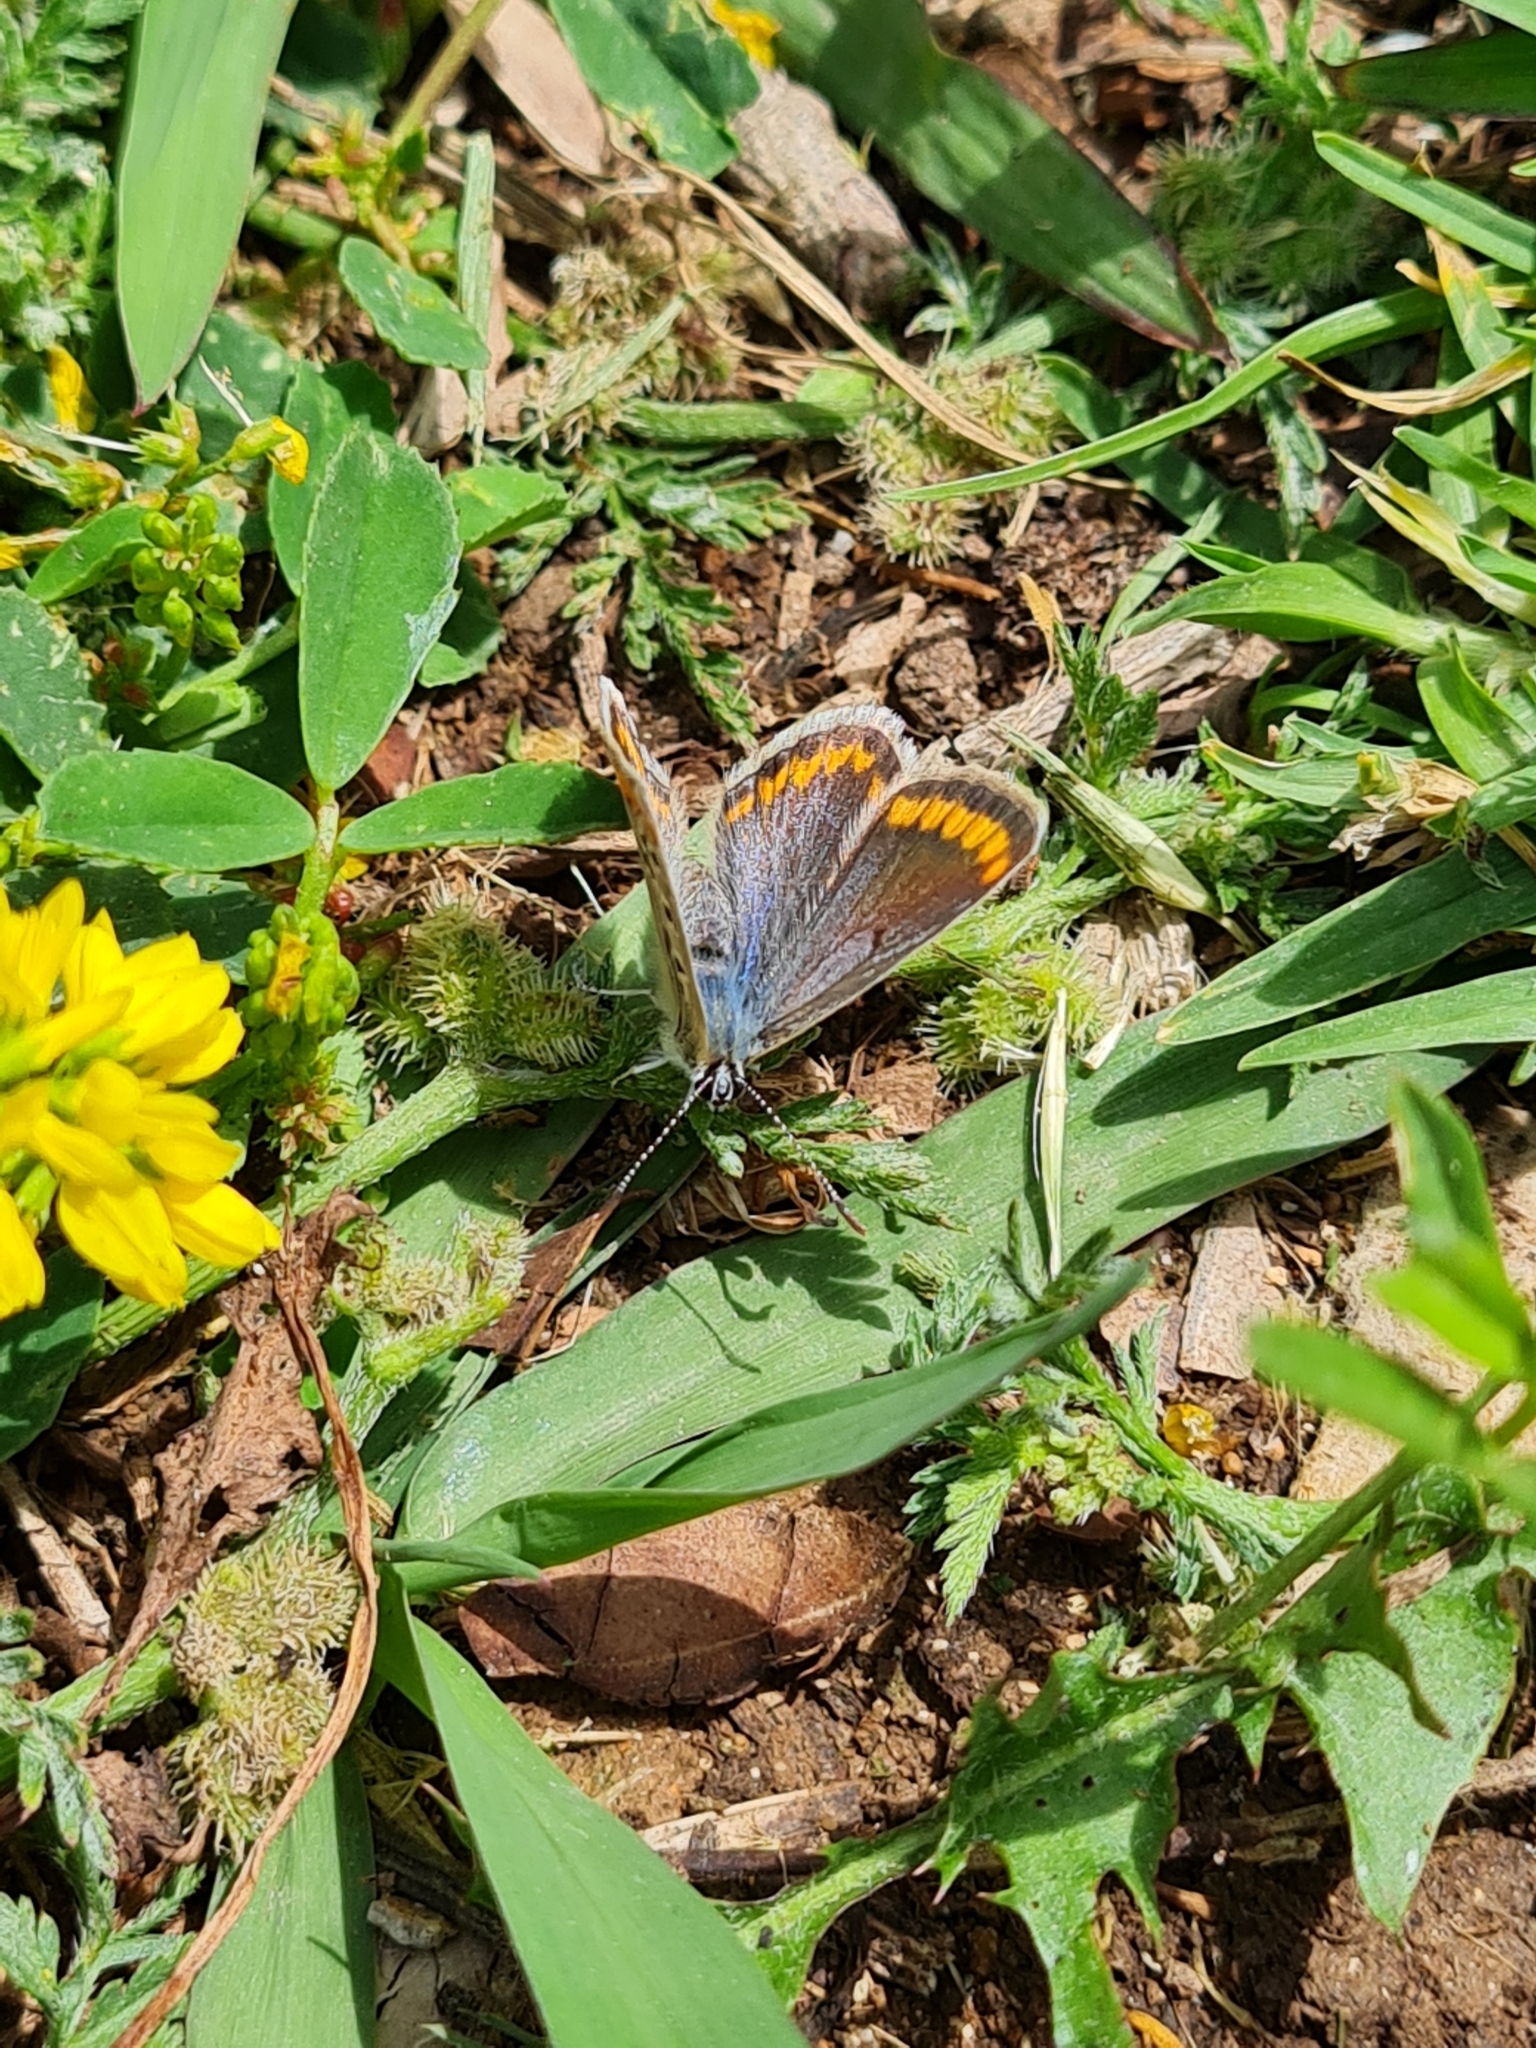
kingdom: Animalia
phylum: Arthropoda
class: Insecta
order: Lepidoptera
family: Lycaenidae
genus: Polyommatus
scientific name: Polyommatus celina
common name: Austaut's blue
